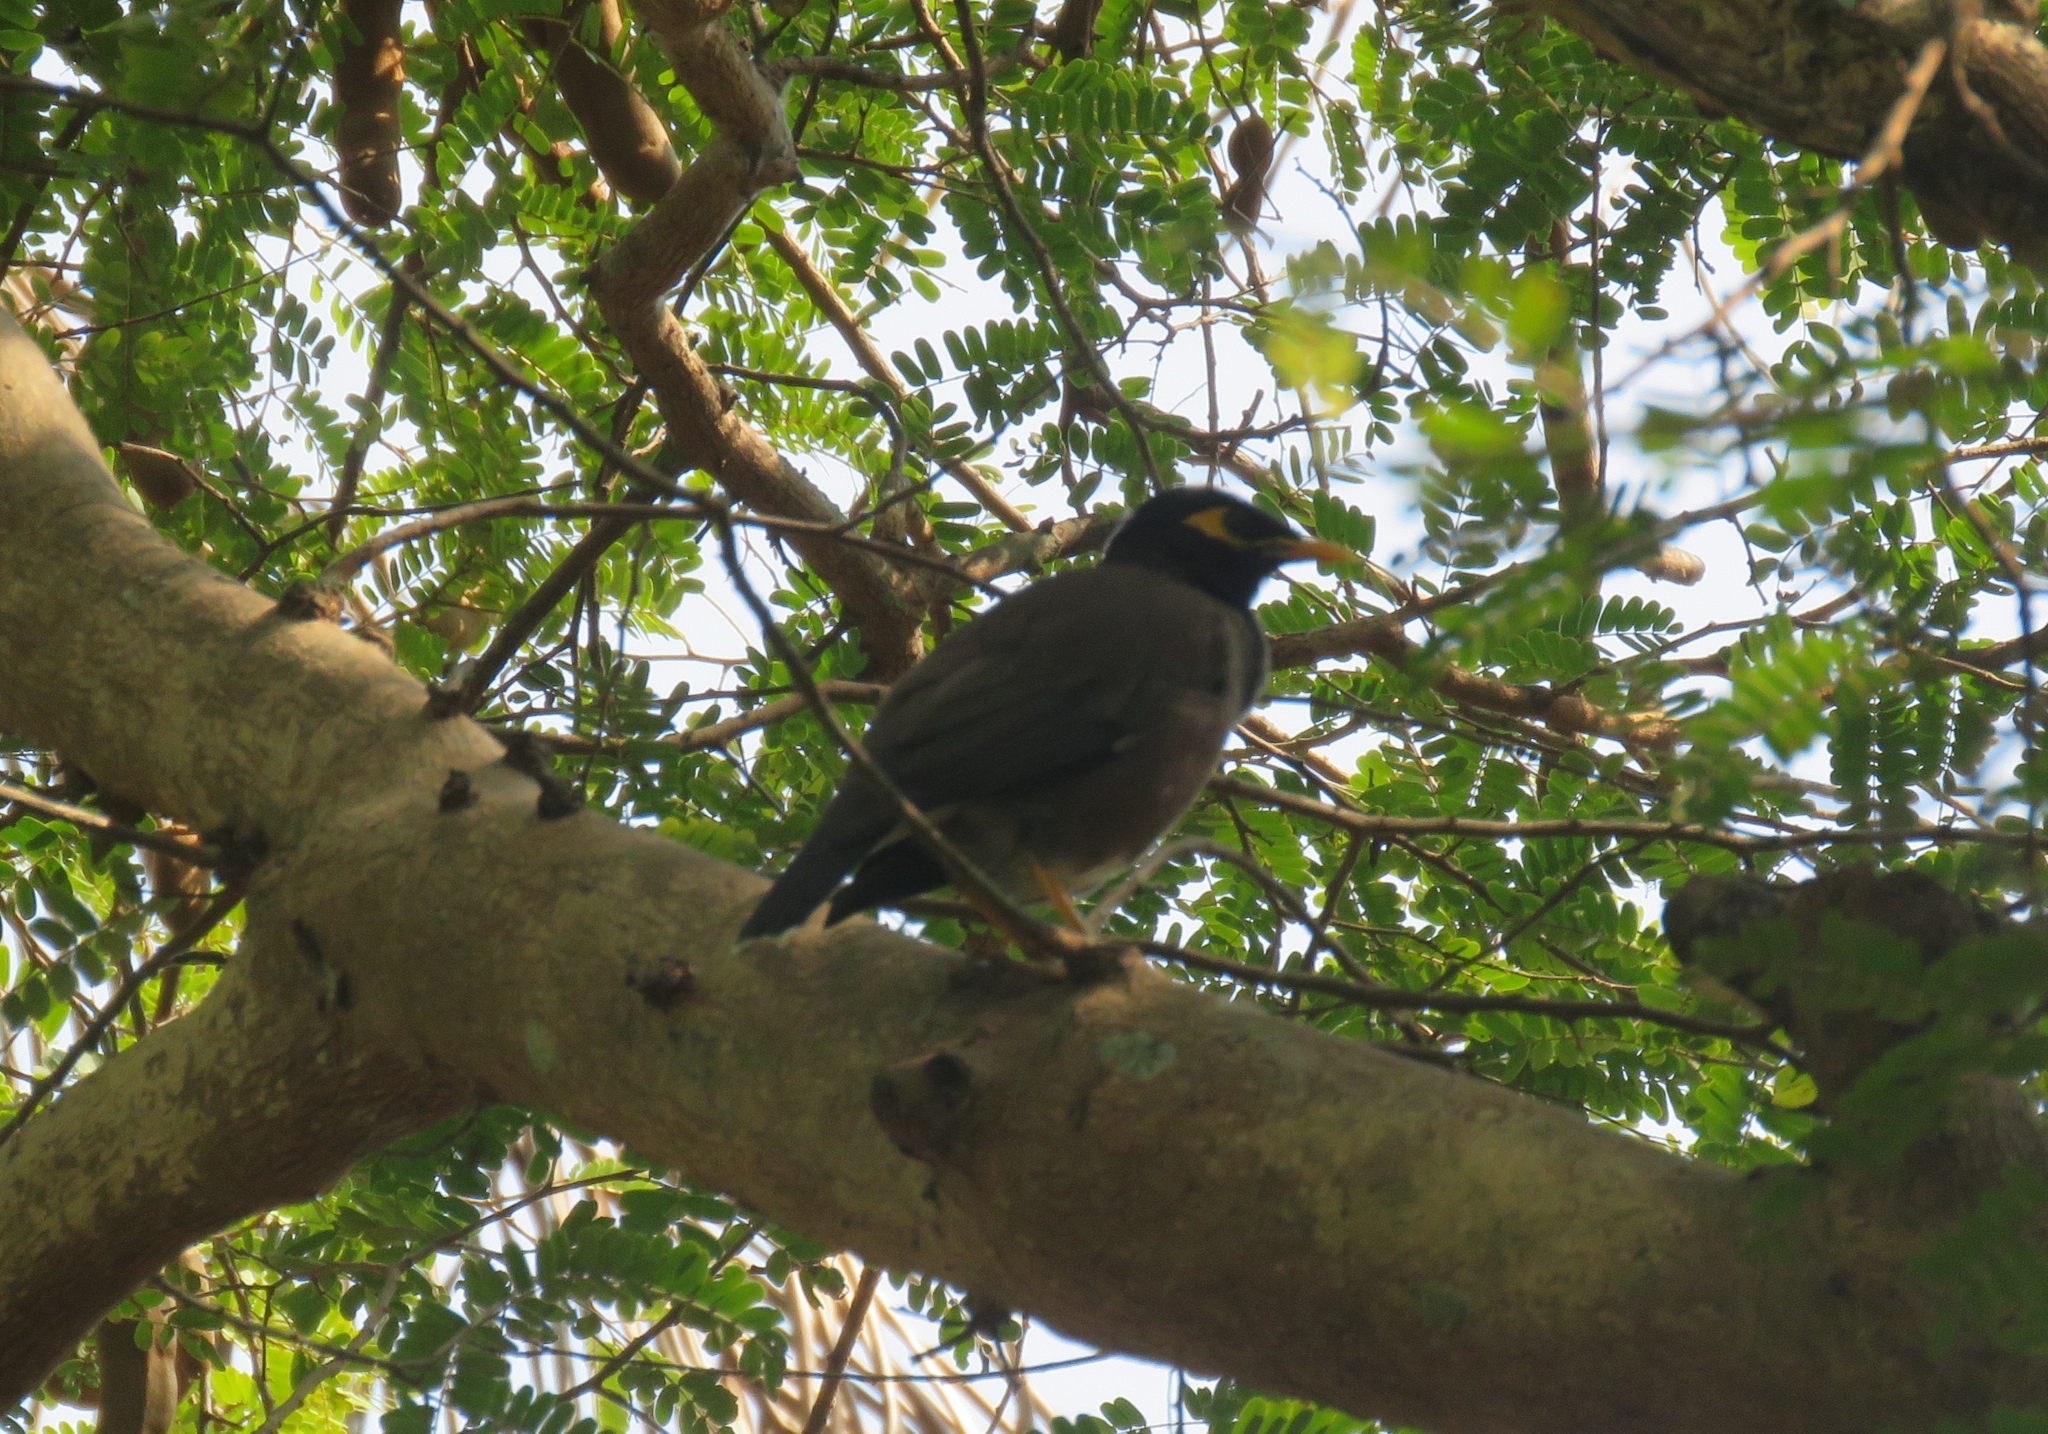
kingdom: Animalia
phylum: Chordata
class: Aves
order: Passeriformes
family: Sturnidae
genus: Acridotheres
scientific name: Acridotheres tristis
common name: Common myna
